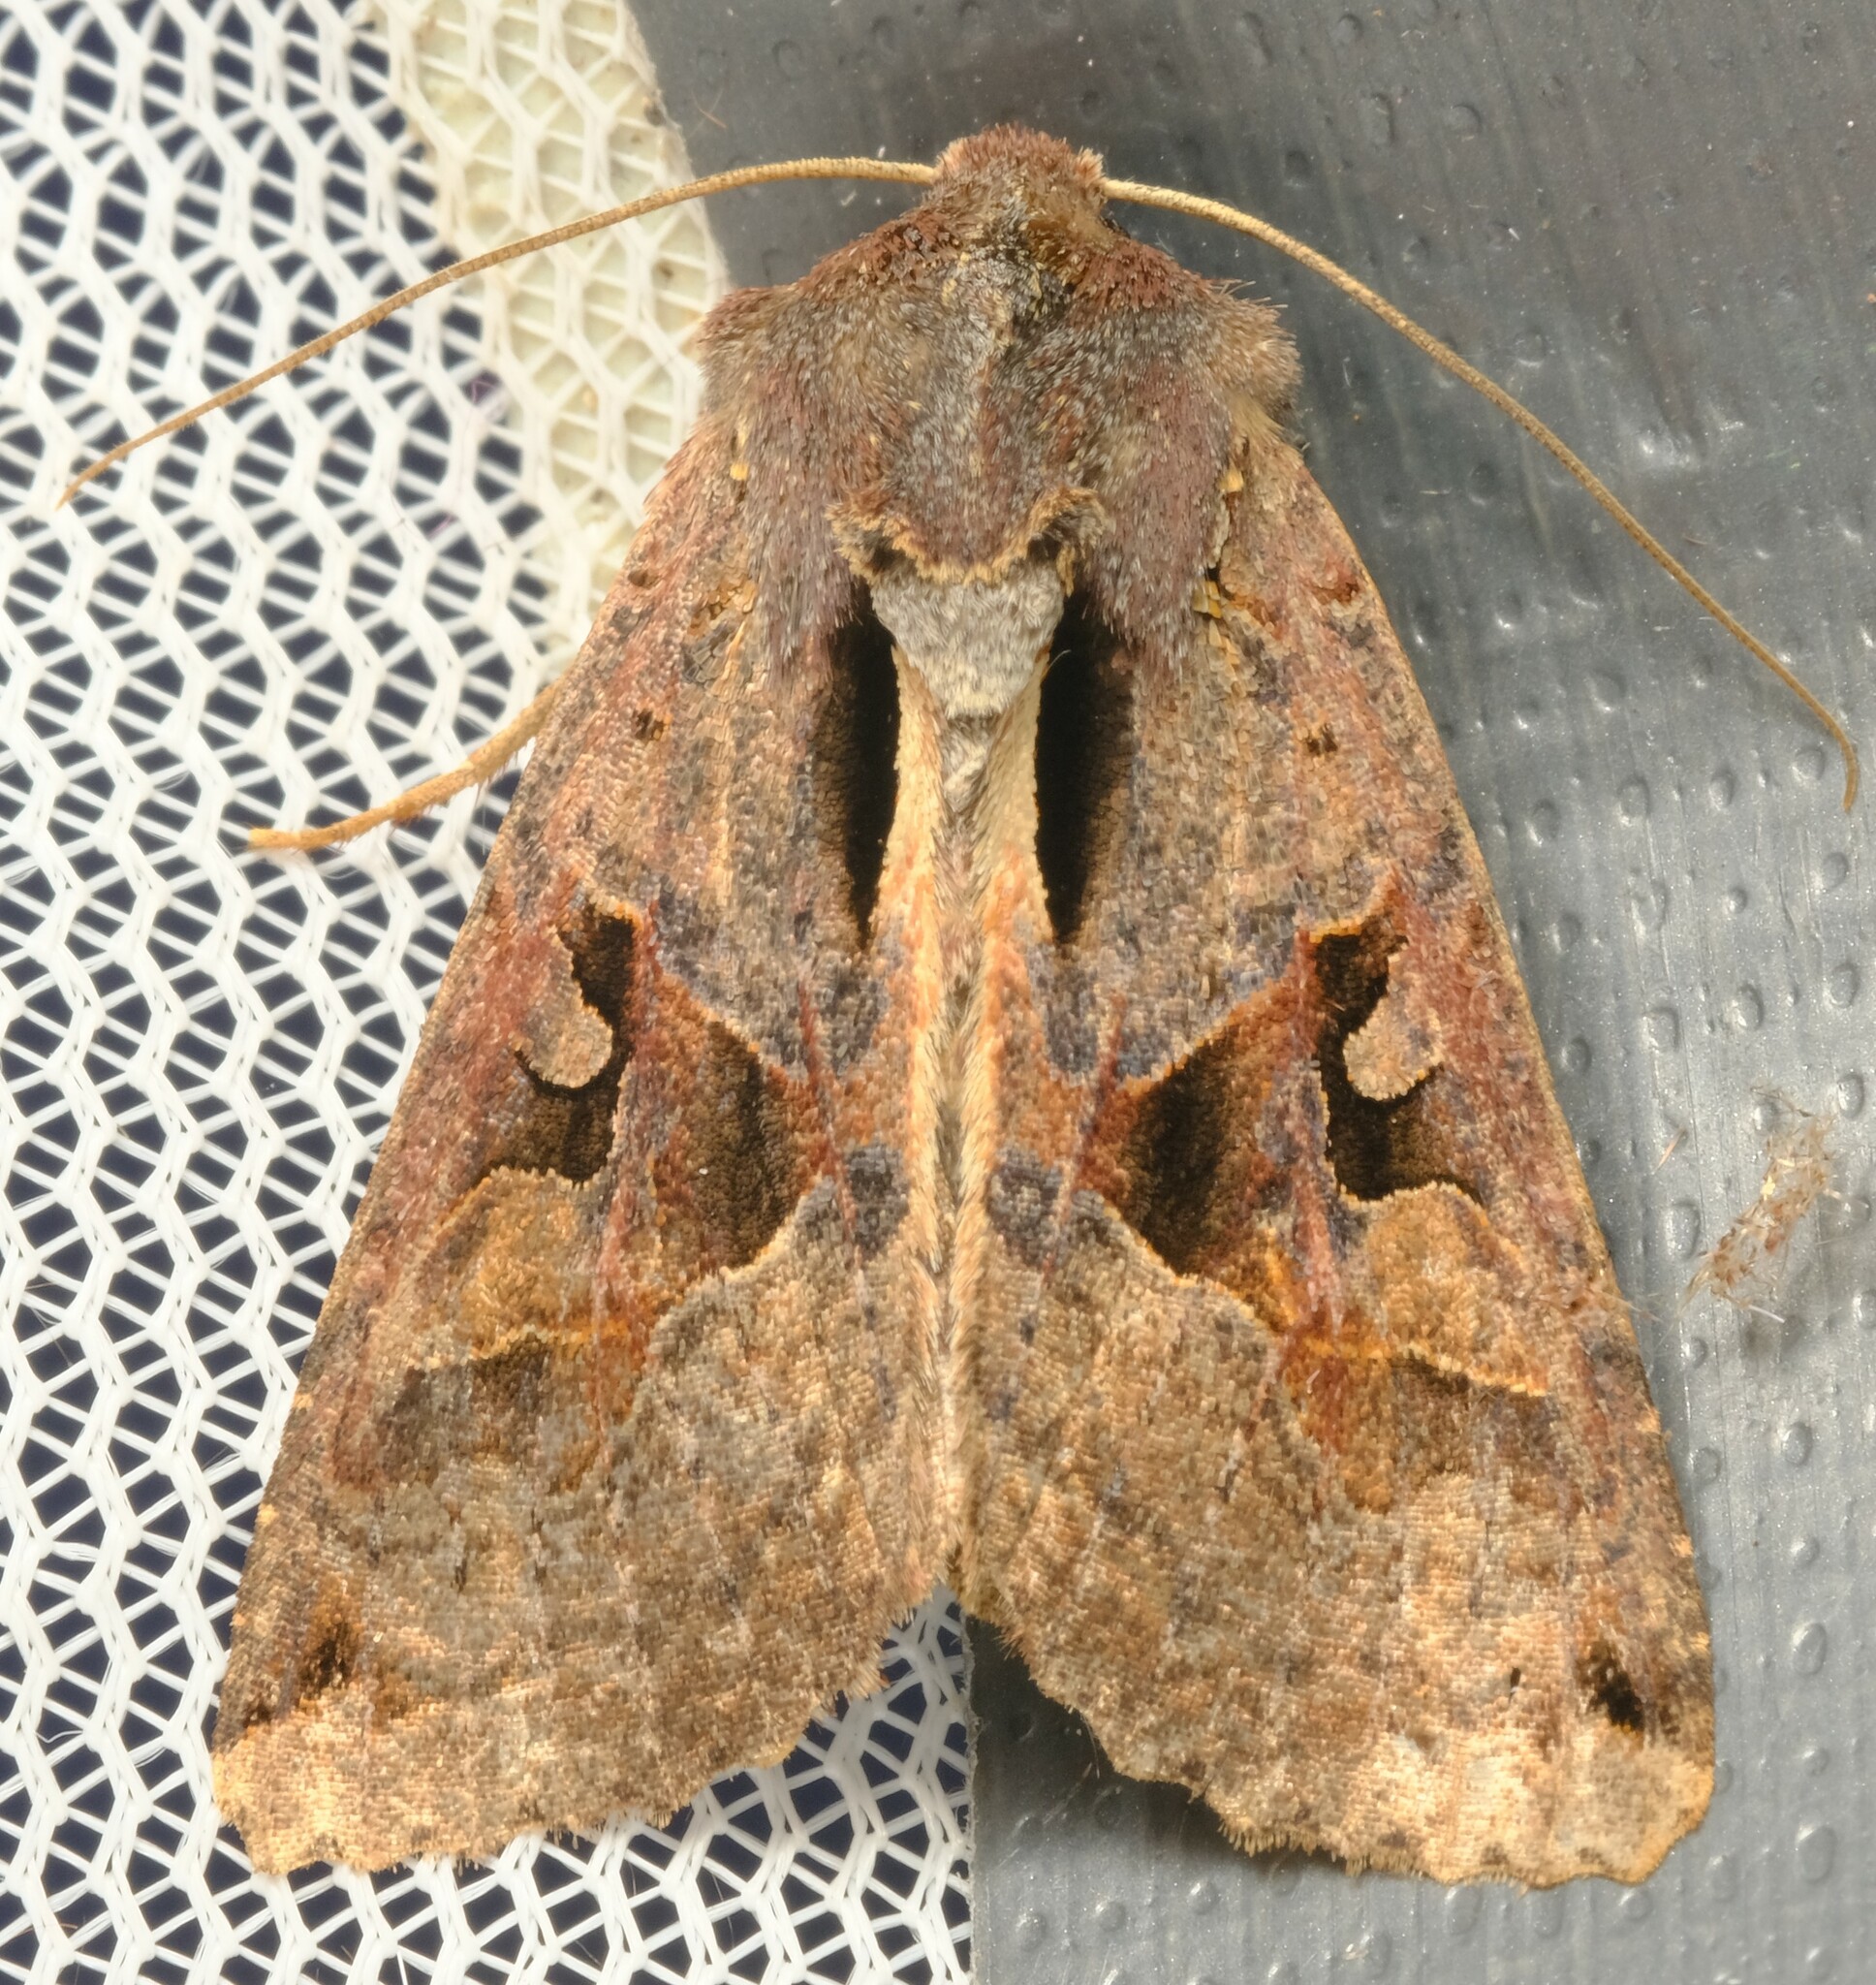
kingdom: Animalia
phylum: Arthropoda
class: Insecta
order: Lepidoptera
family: Noctuidae
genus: Neumichtis
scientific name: Neumichtis signata
